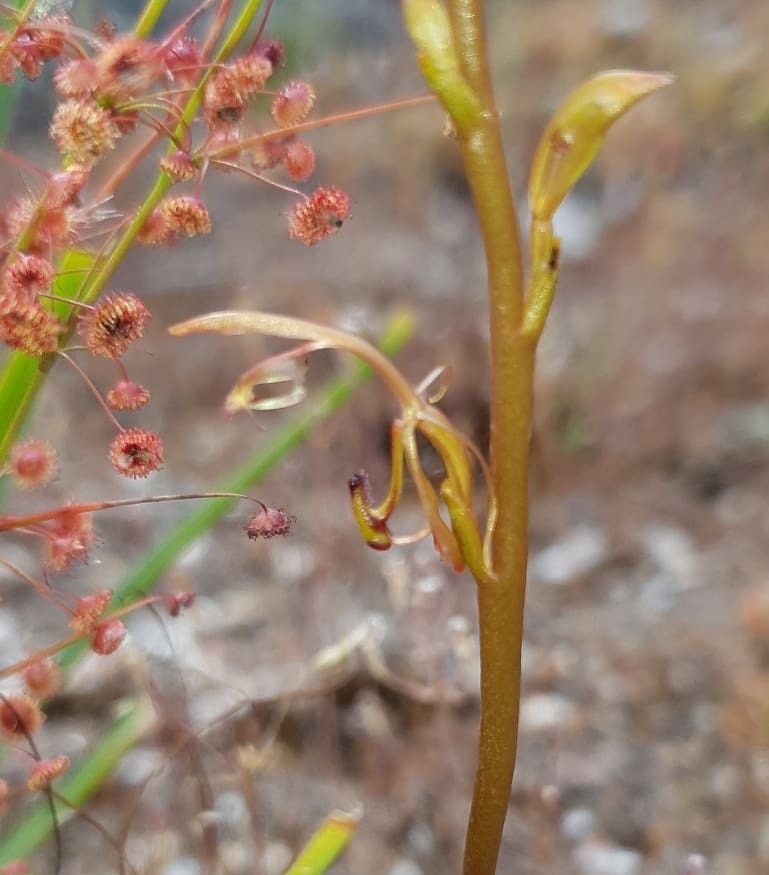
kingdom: Plantae
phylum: Tracheophyta
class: Liliopsida
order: Asparagales
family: Orchidaceae
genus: Spiculaea
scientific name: Spiculaea ciliata
